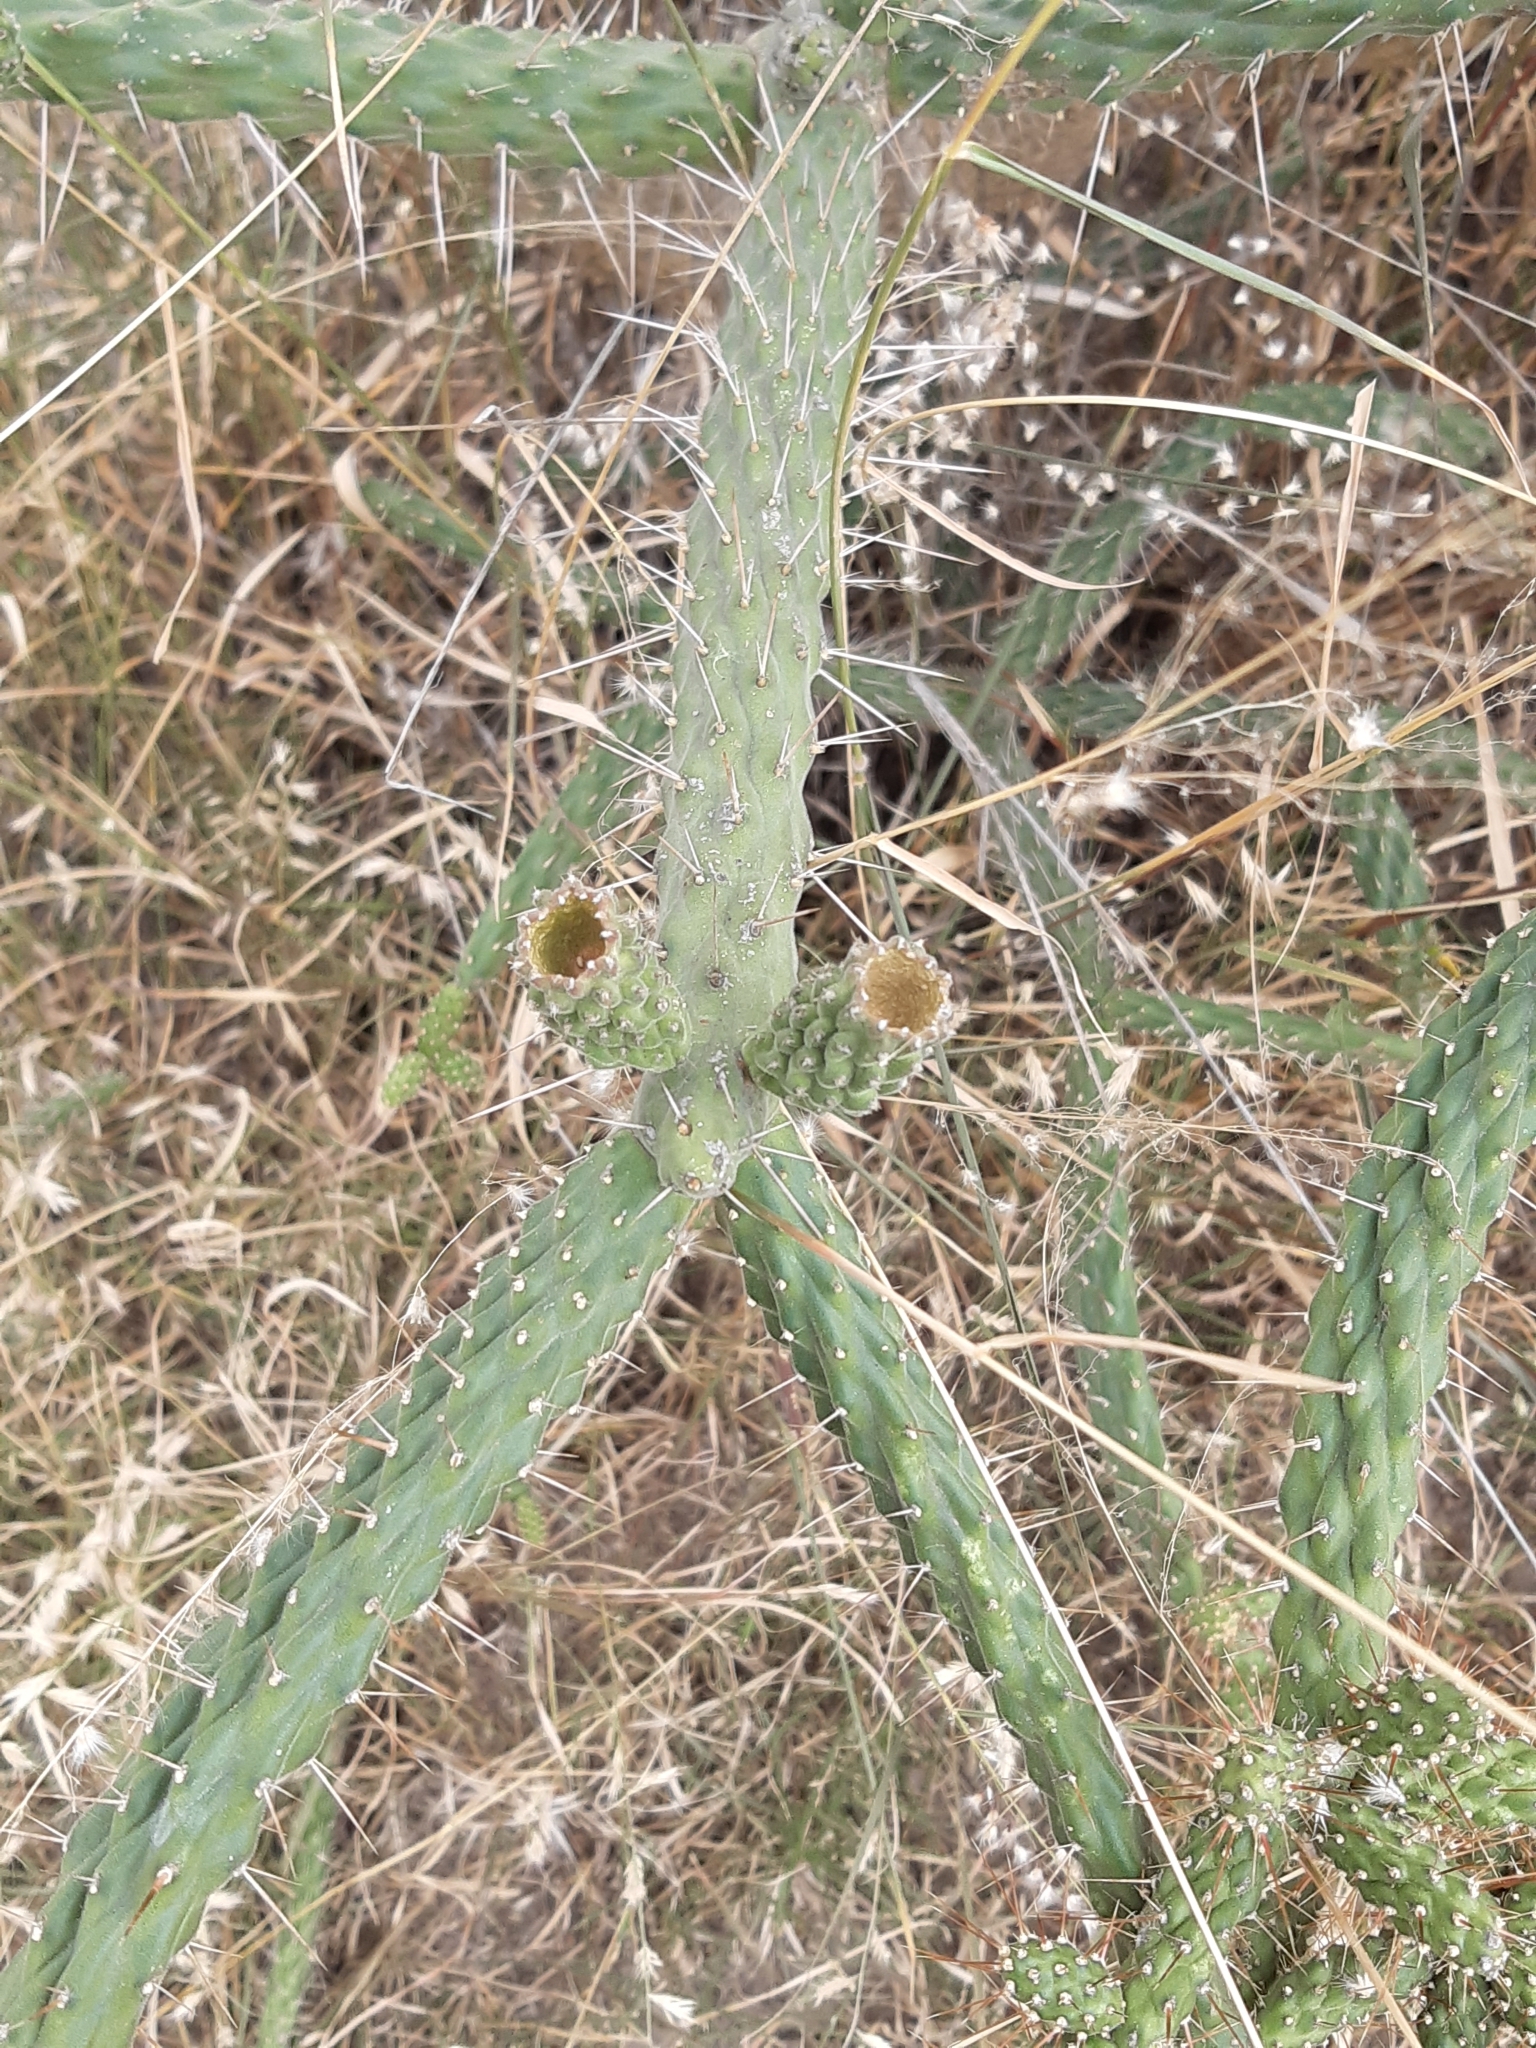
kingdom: Plantae
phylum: Tracheophyta
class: Magnoliopsida
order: Caryophyllales
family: Cactaceae
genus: Opuntia
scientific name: Opuntia pubescens
